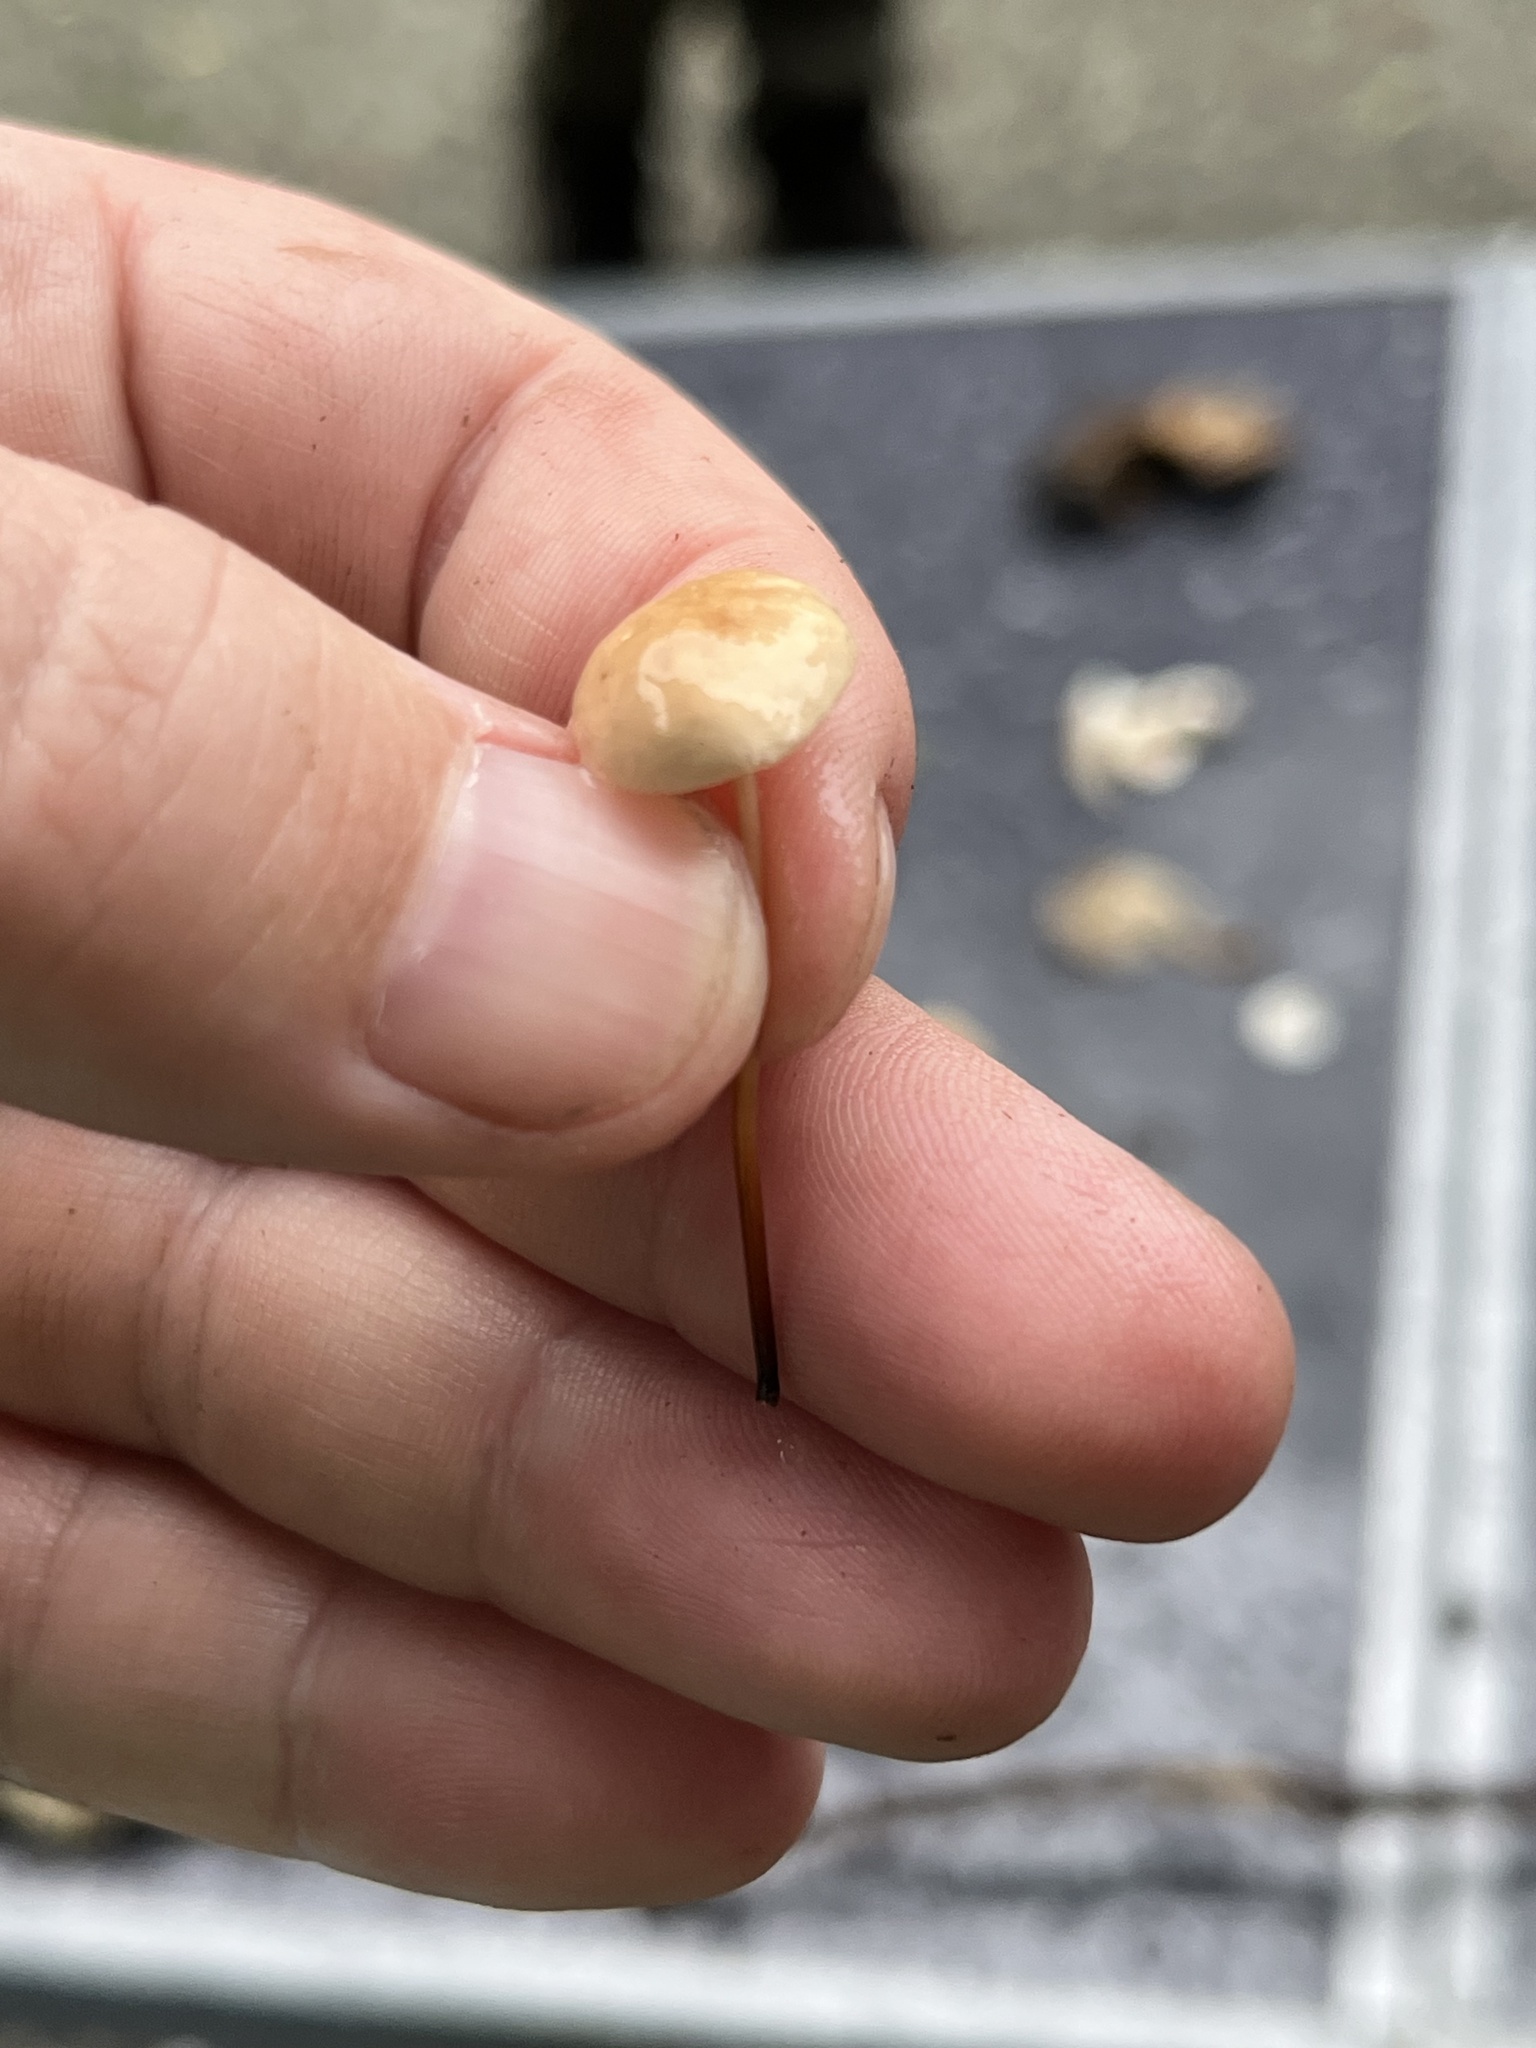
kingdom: Fungi
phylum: Basidiomycota
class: Agaricomycetes
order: Agaricales
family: Omphalotaceae
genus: Mycetinis
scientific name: Mycetinis scorodonius
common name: Vampires bane
